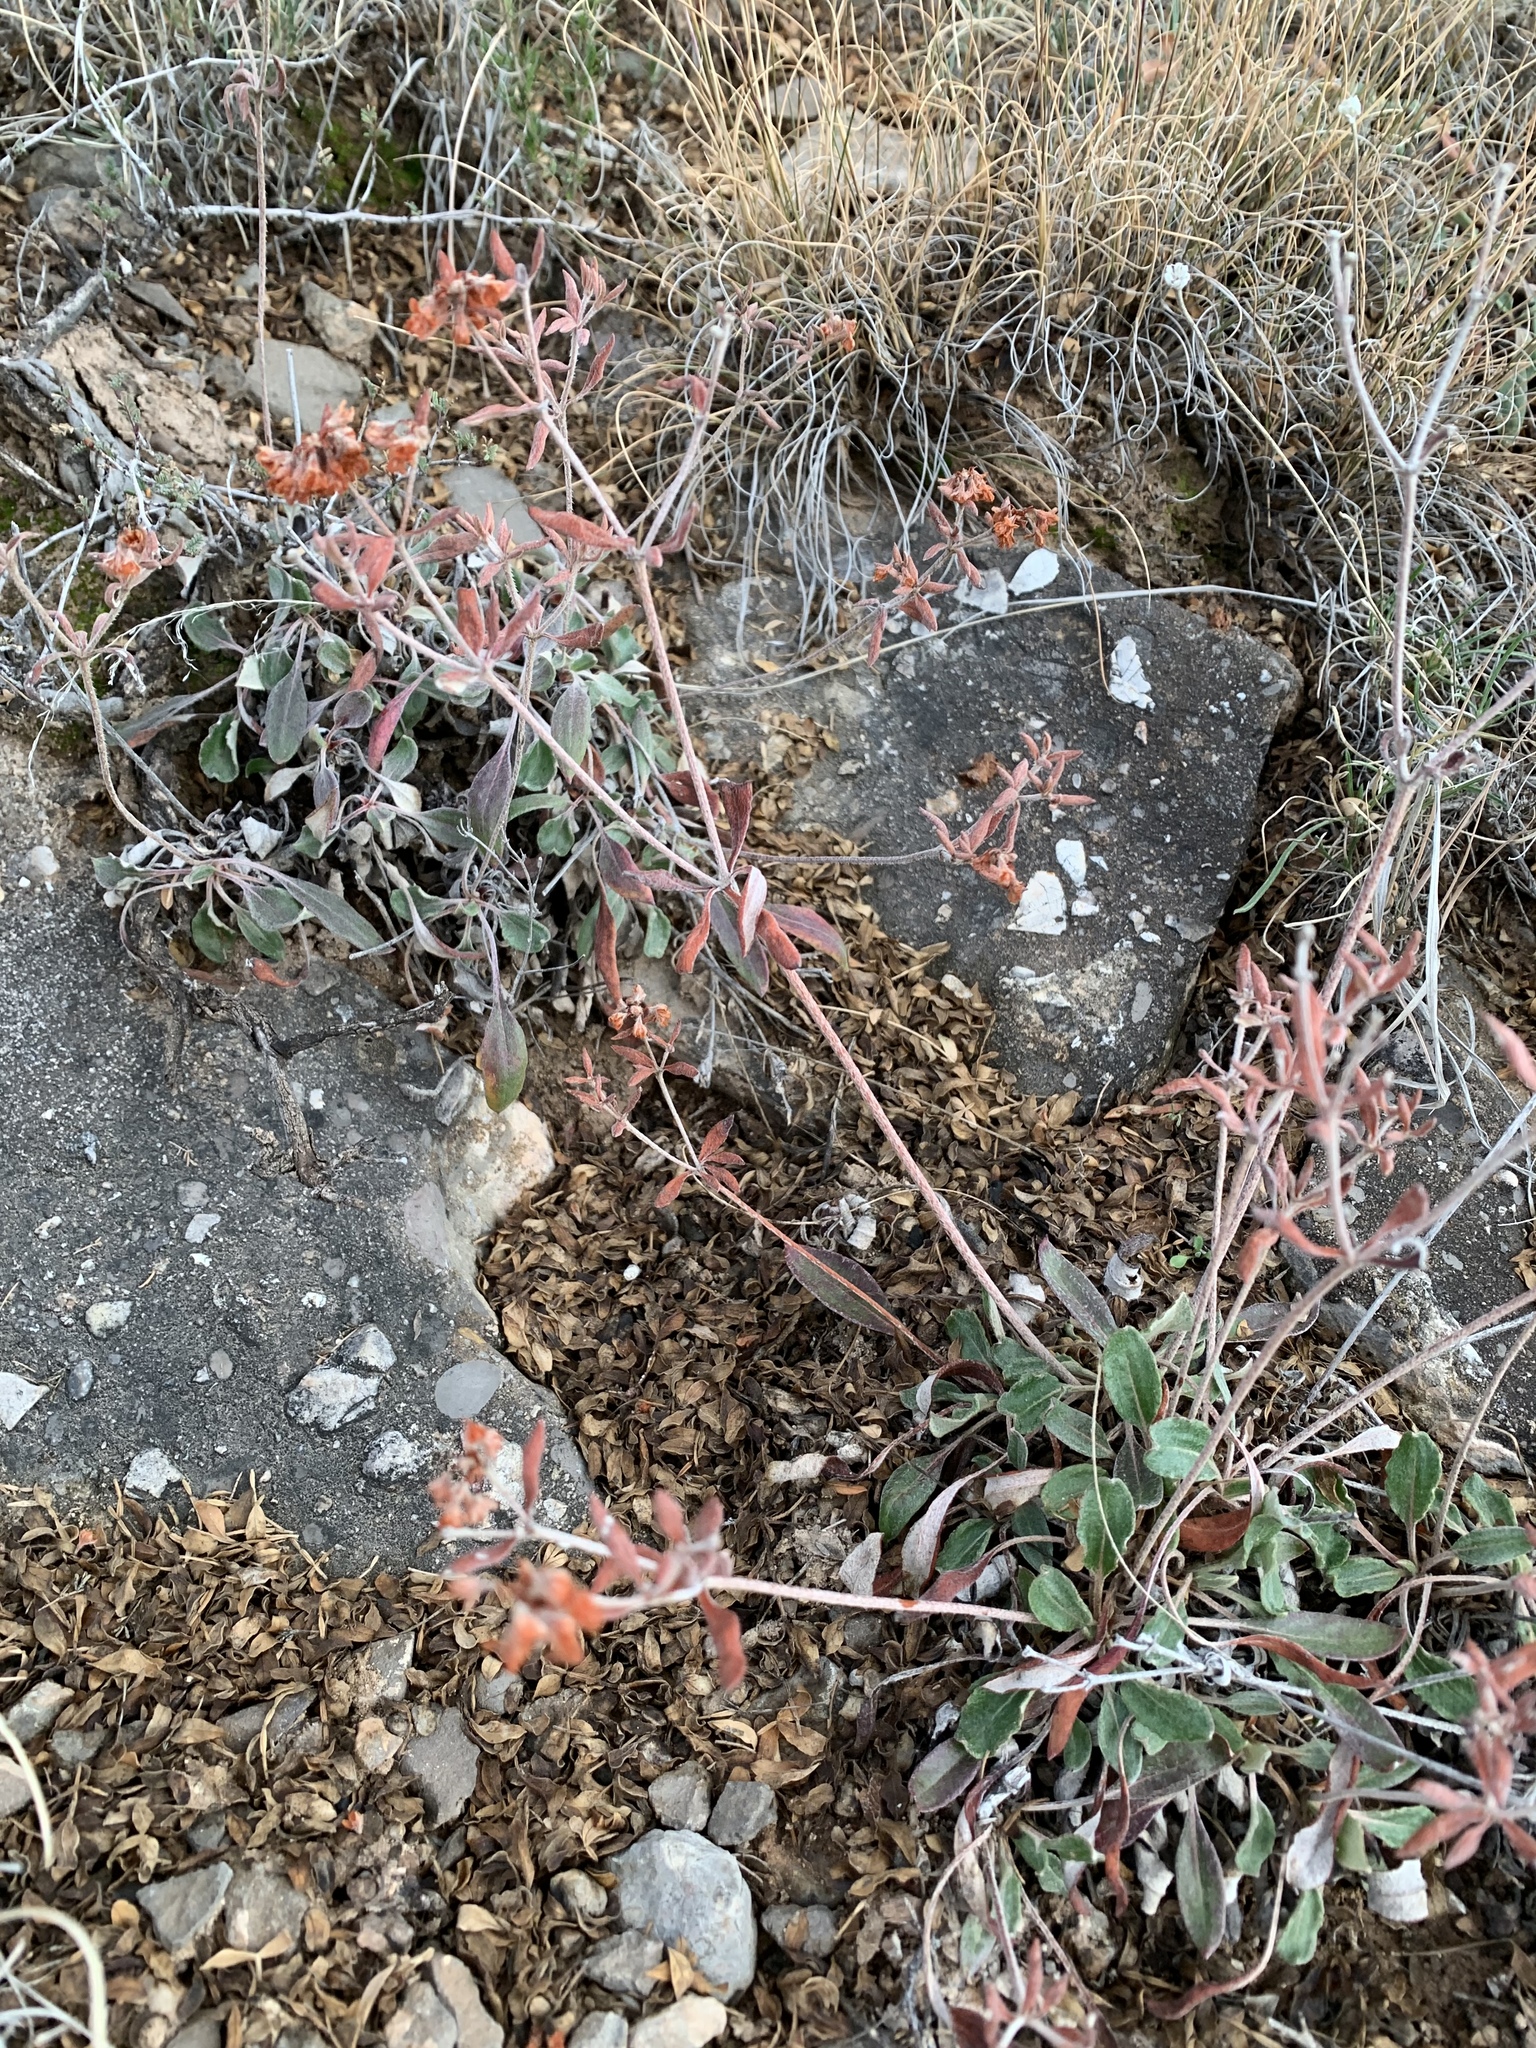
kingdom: Plantae
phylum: Tracheophyta
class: Magnoliopsida
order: Caryophyllales
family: Polygonaceae
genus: Eriogonum
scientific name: Eriogonum wootonii
